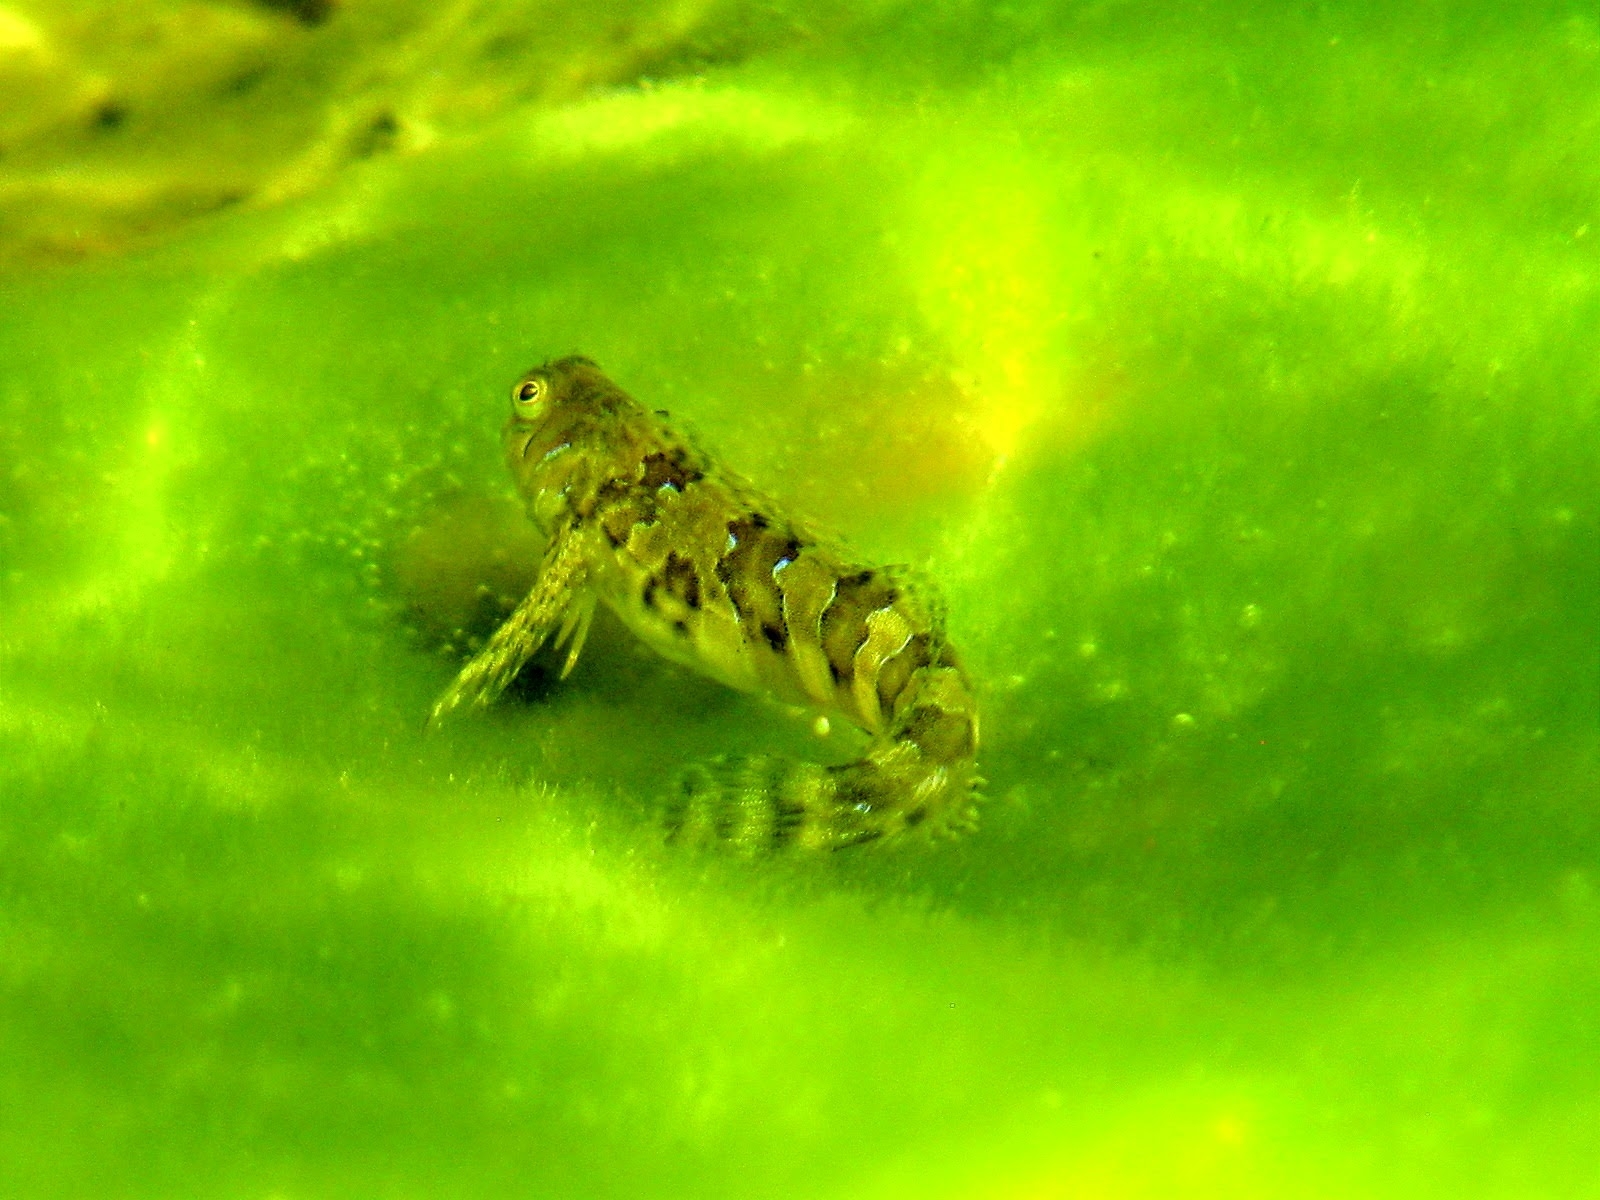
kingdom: Animalia
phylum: Chordata
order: Perciformes
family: Blenniidae
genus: Aidablennius
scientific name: Aidablennius sphynx
